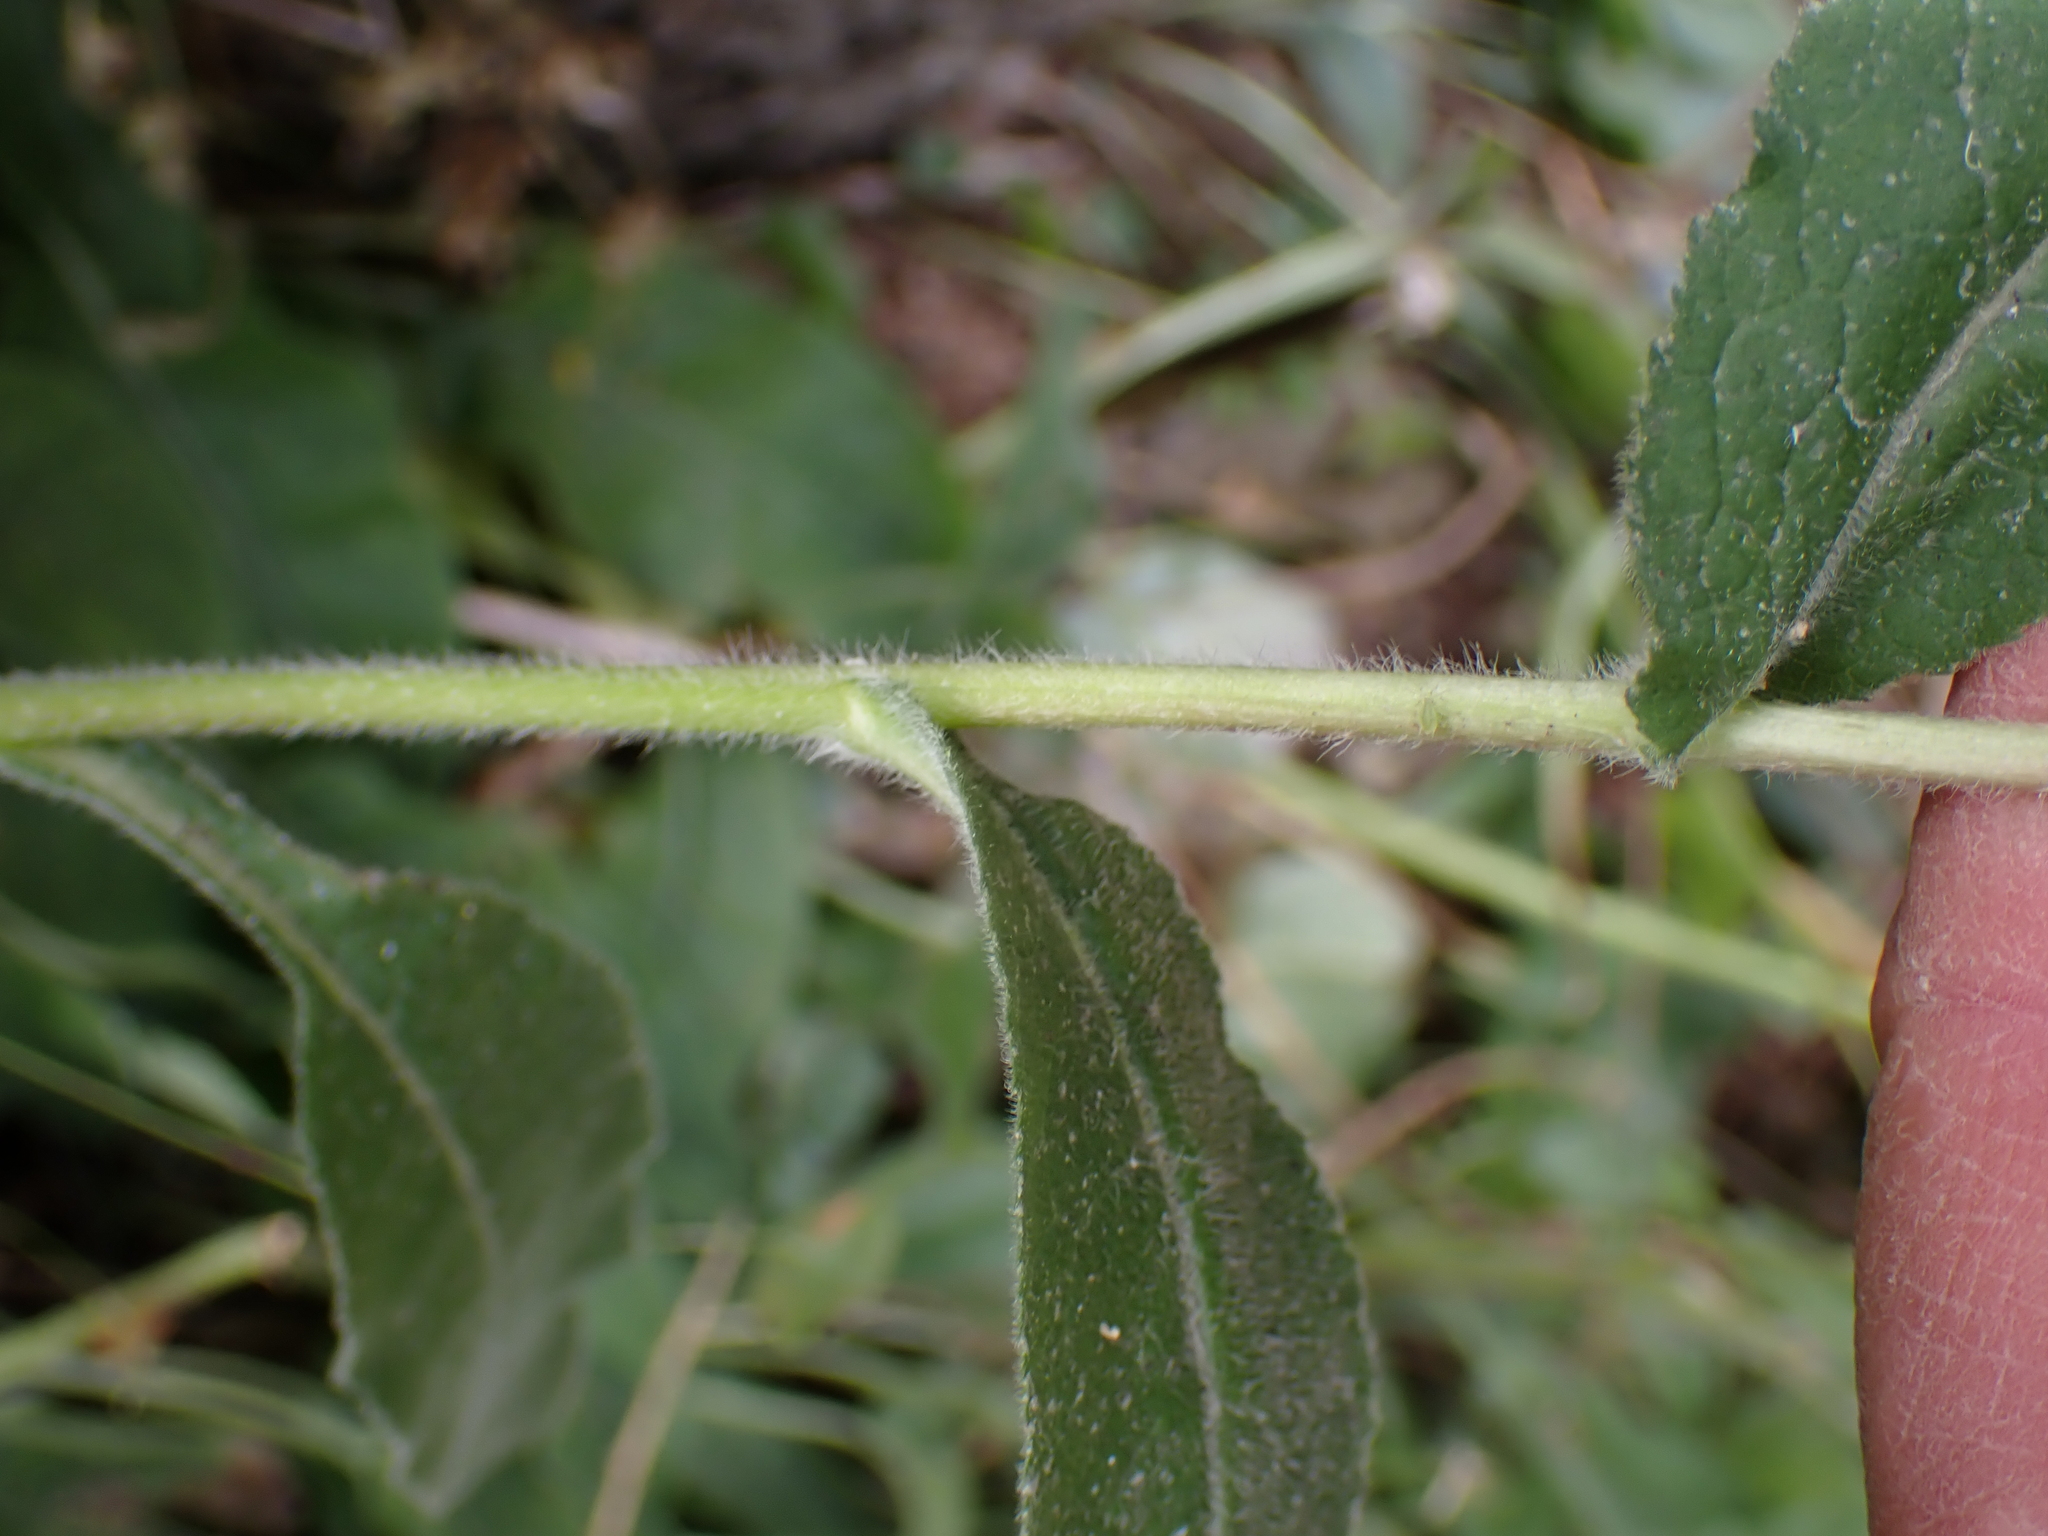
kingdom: Plantae
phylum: Tracheophyta
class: Magnoliopsida
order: Asterales
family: Campanulaceae
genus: Campanula
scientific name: Campanula glomerata
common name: Clustered bellflower
